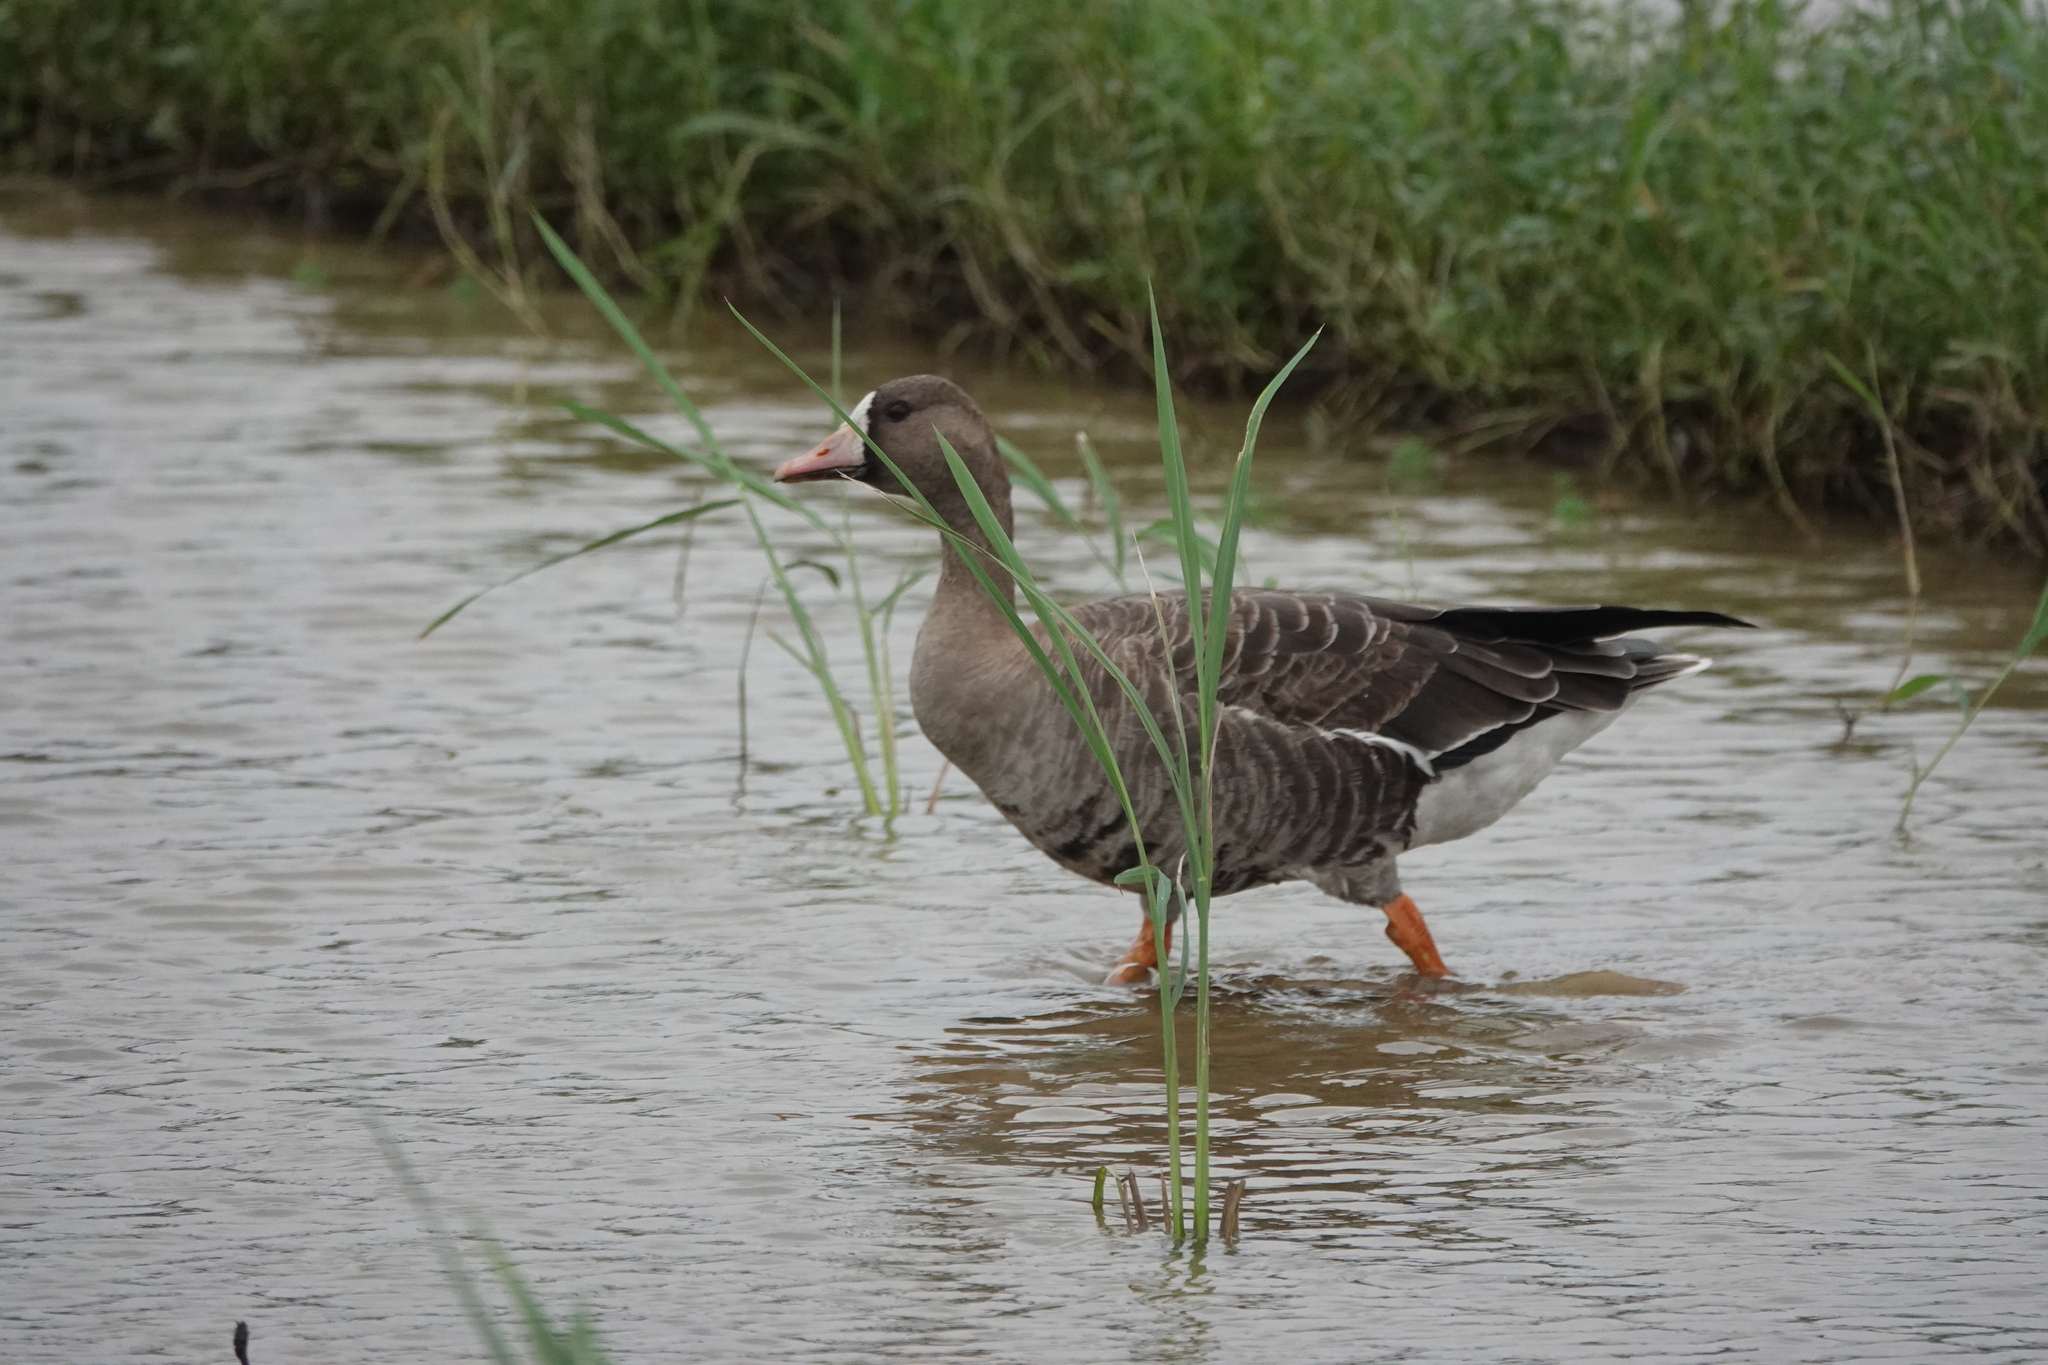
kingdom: Animalia
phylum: Chordata
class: Aves
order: Anseriformes
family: Anatidae
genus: Anser
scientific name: Anser albifrons
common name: Greater white-fronted goose
